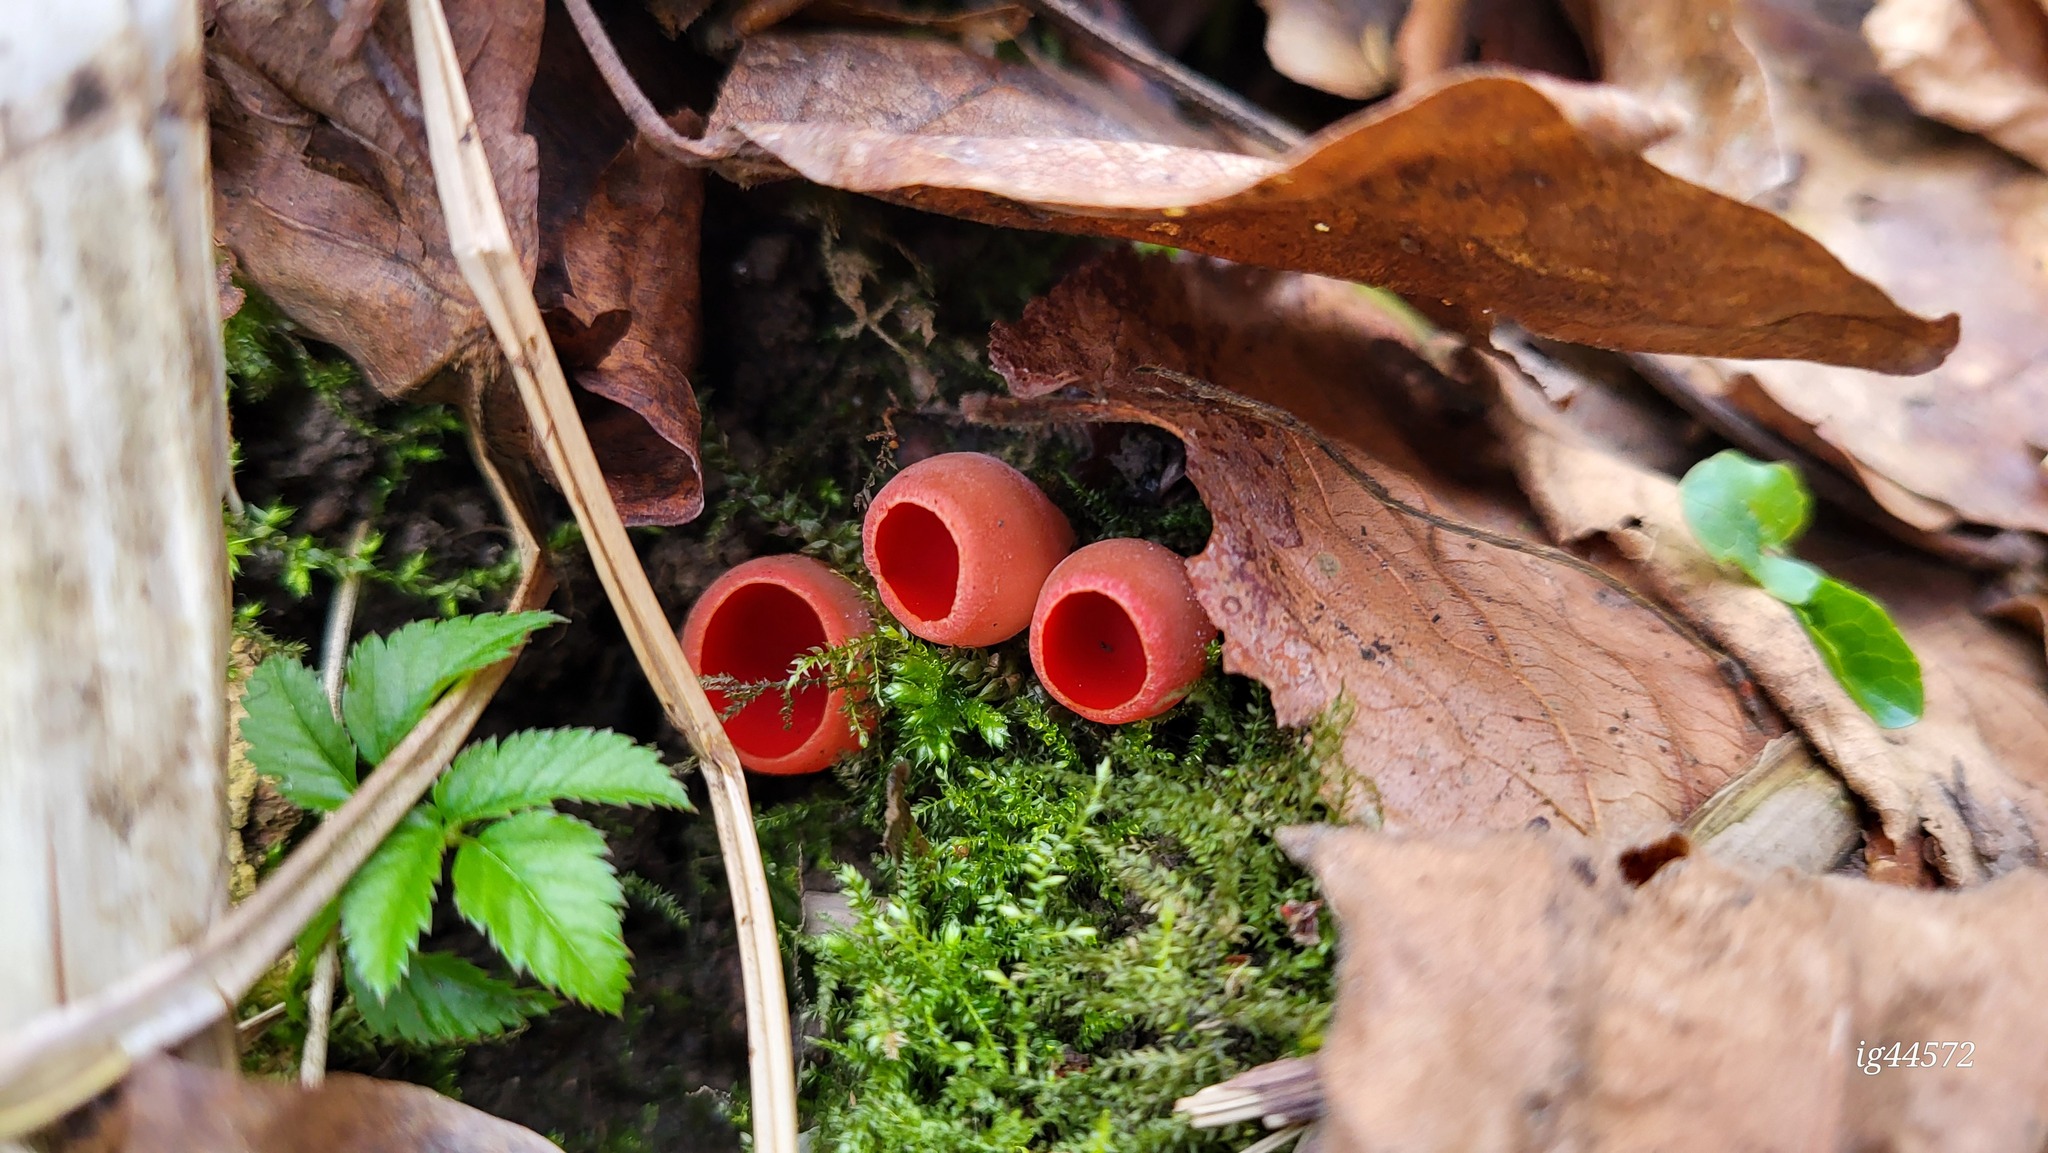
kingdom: Fungi
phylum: Ascomycota
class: Pezizomycetes
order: Pezizales
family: Sarcoscyphaceae
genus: Sarcoscypha
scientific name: Sarcoscypha
